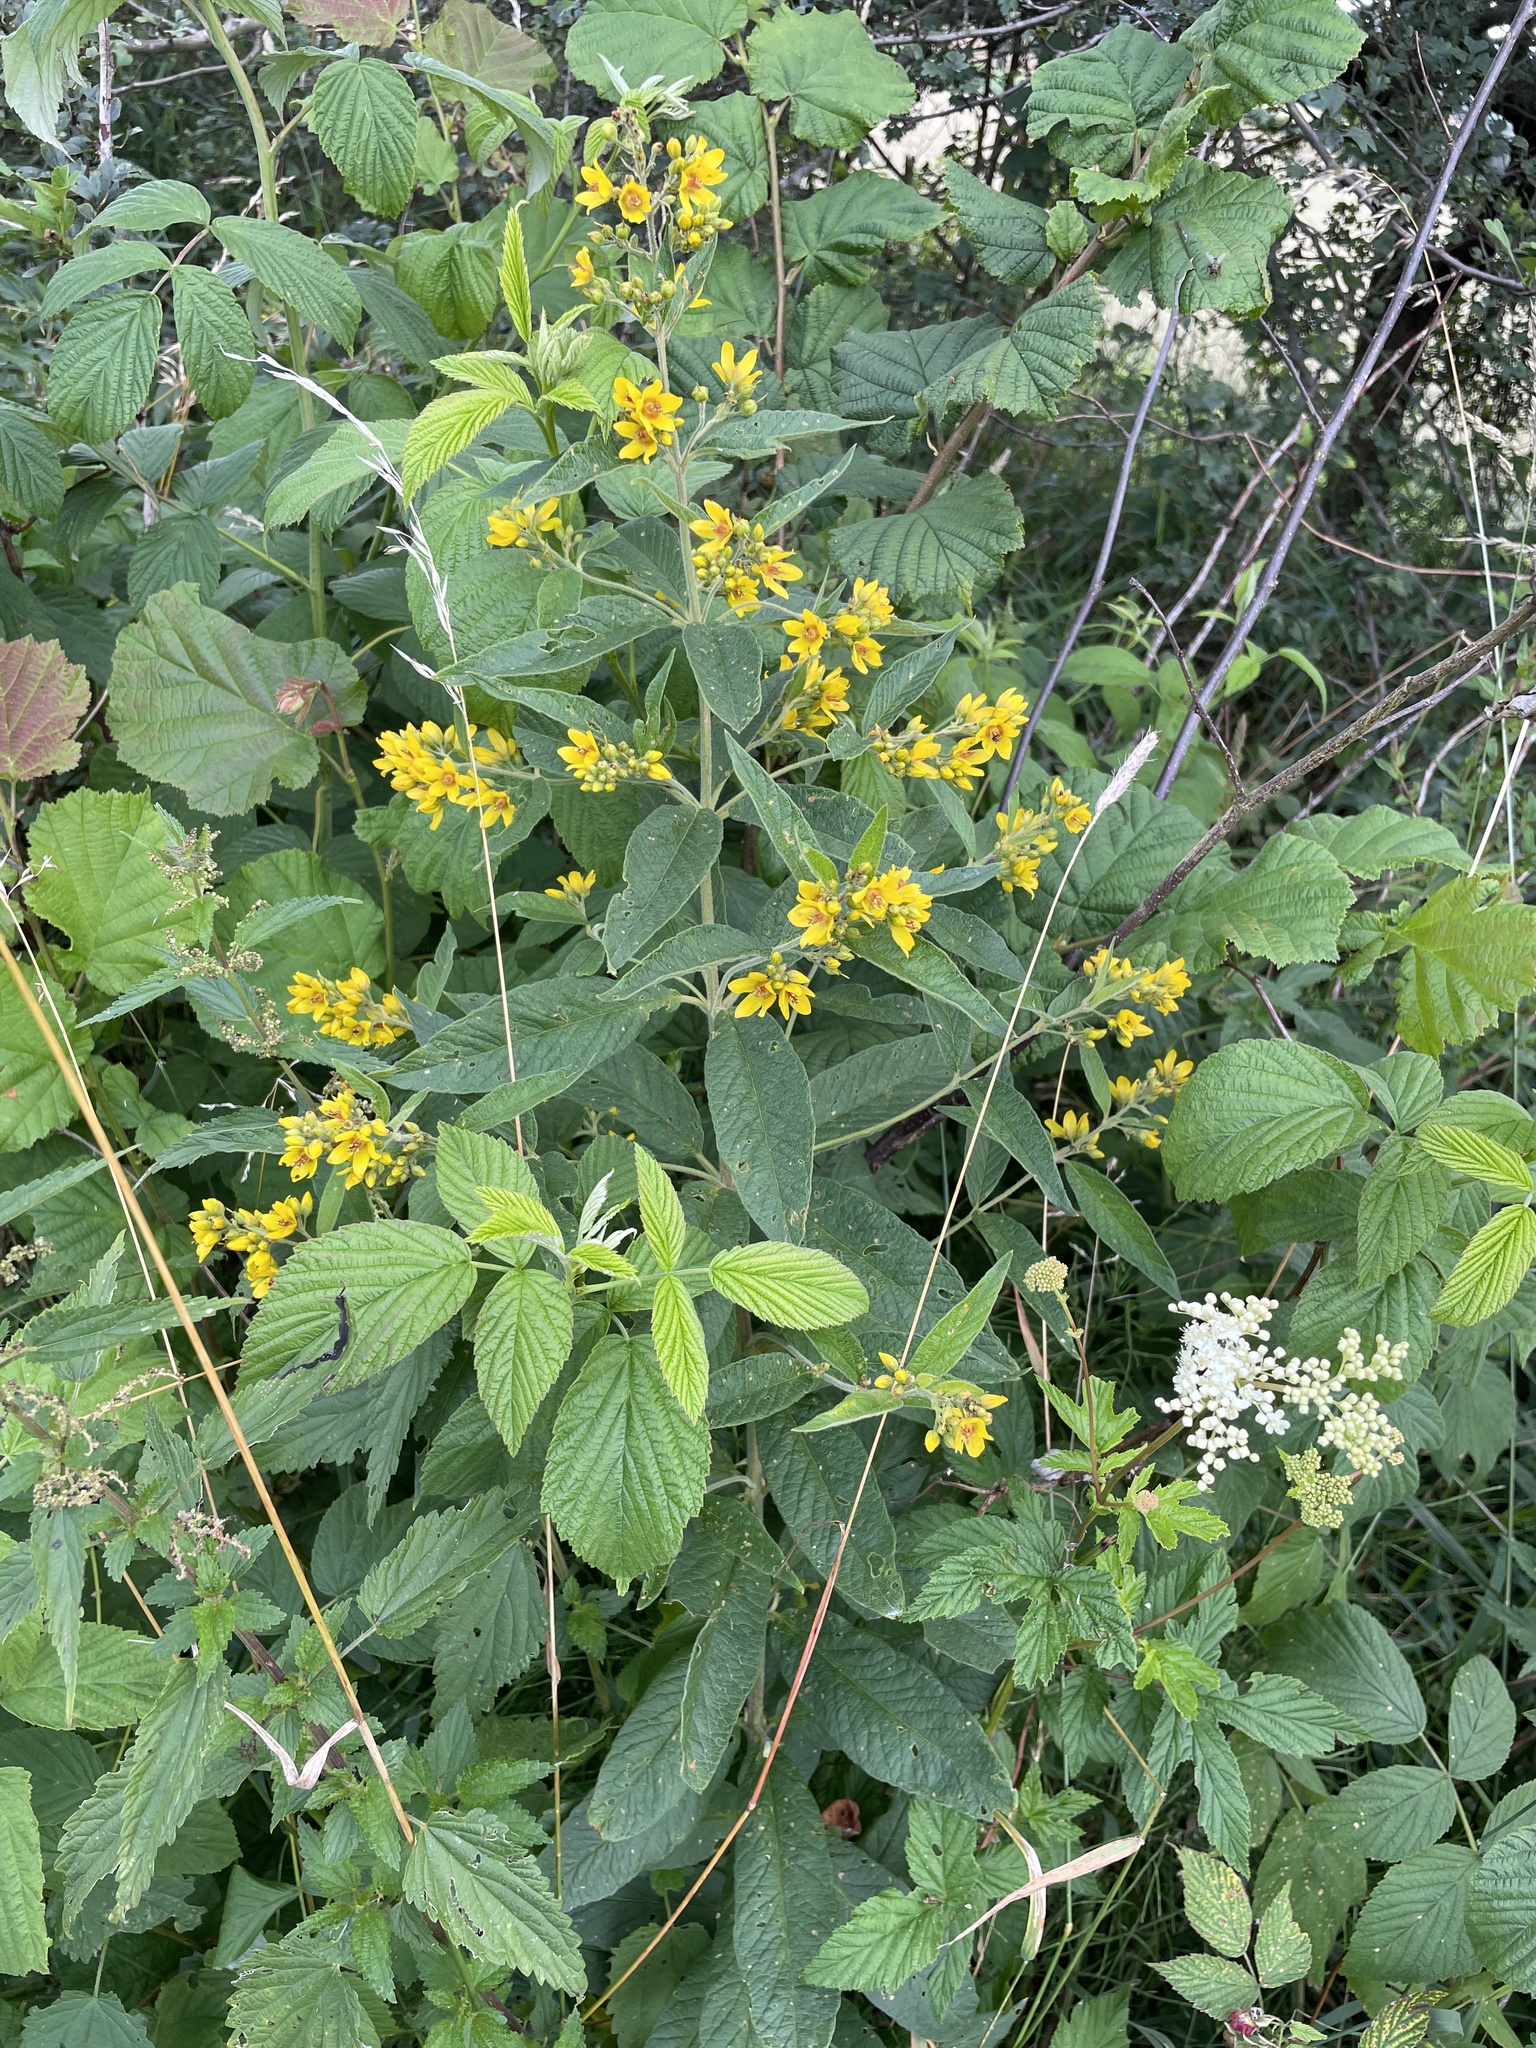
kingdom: Plantae
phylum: Tracheophyta
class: Magnoliopsida
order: Ericales
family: Primulaceae
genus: Lysimachia
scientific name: Lysimachia vulgaris
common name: Yellow loosestrife
